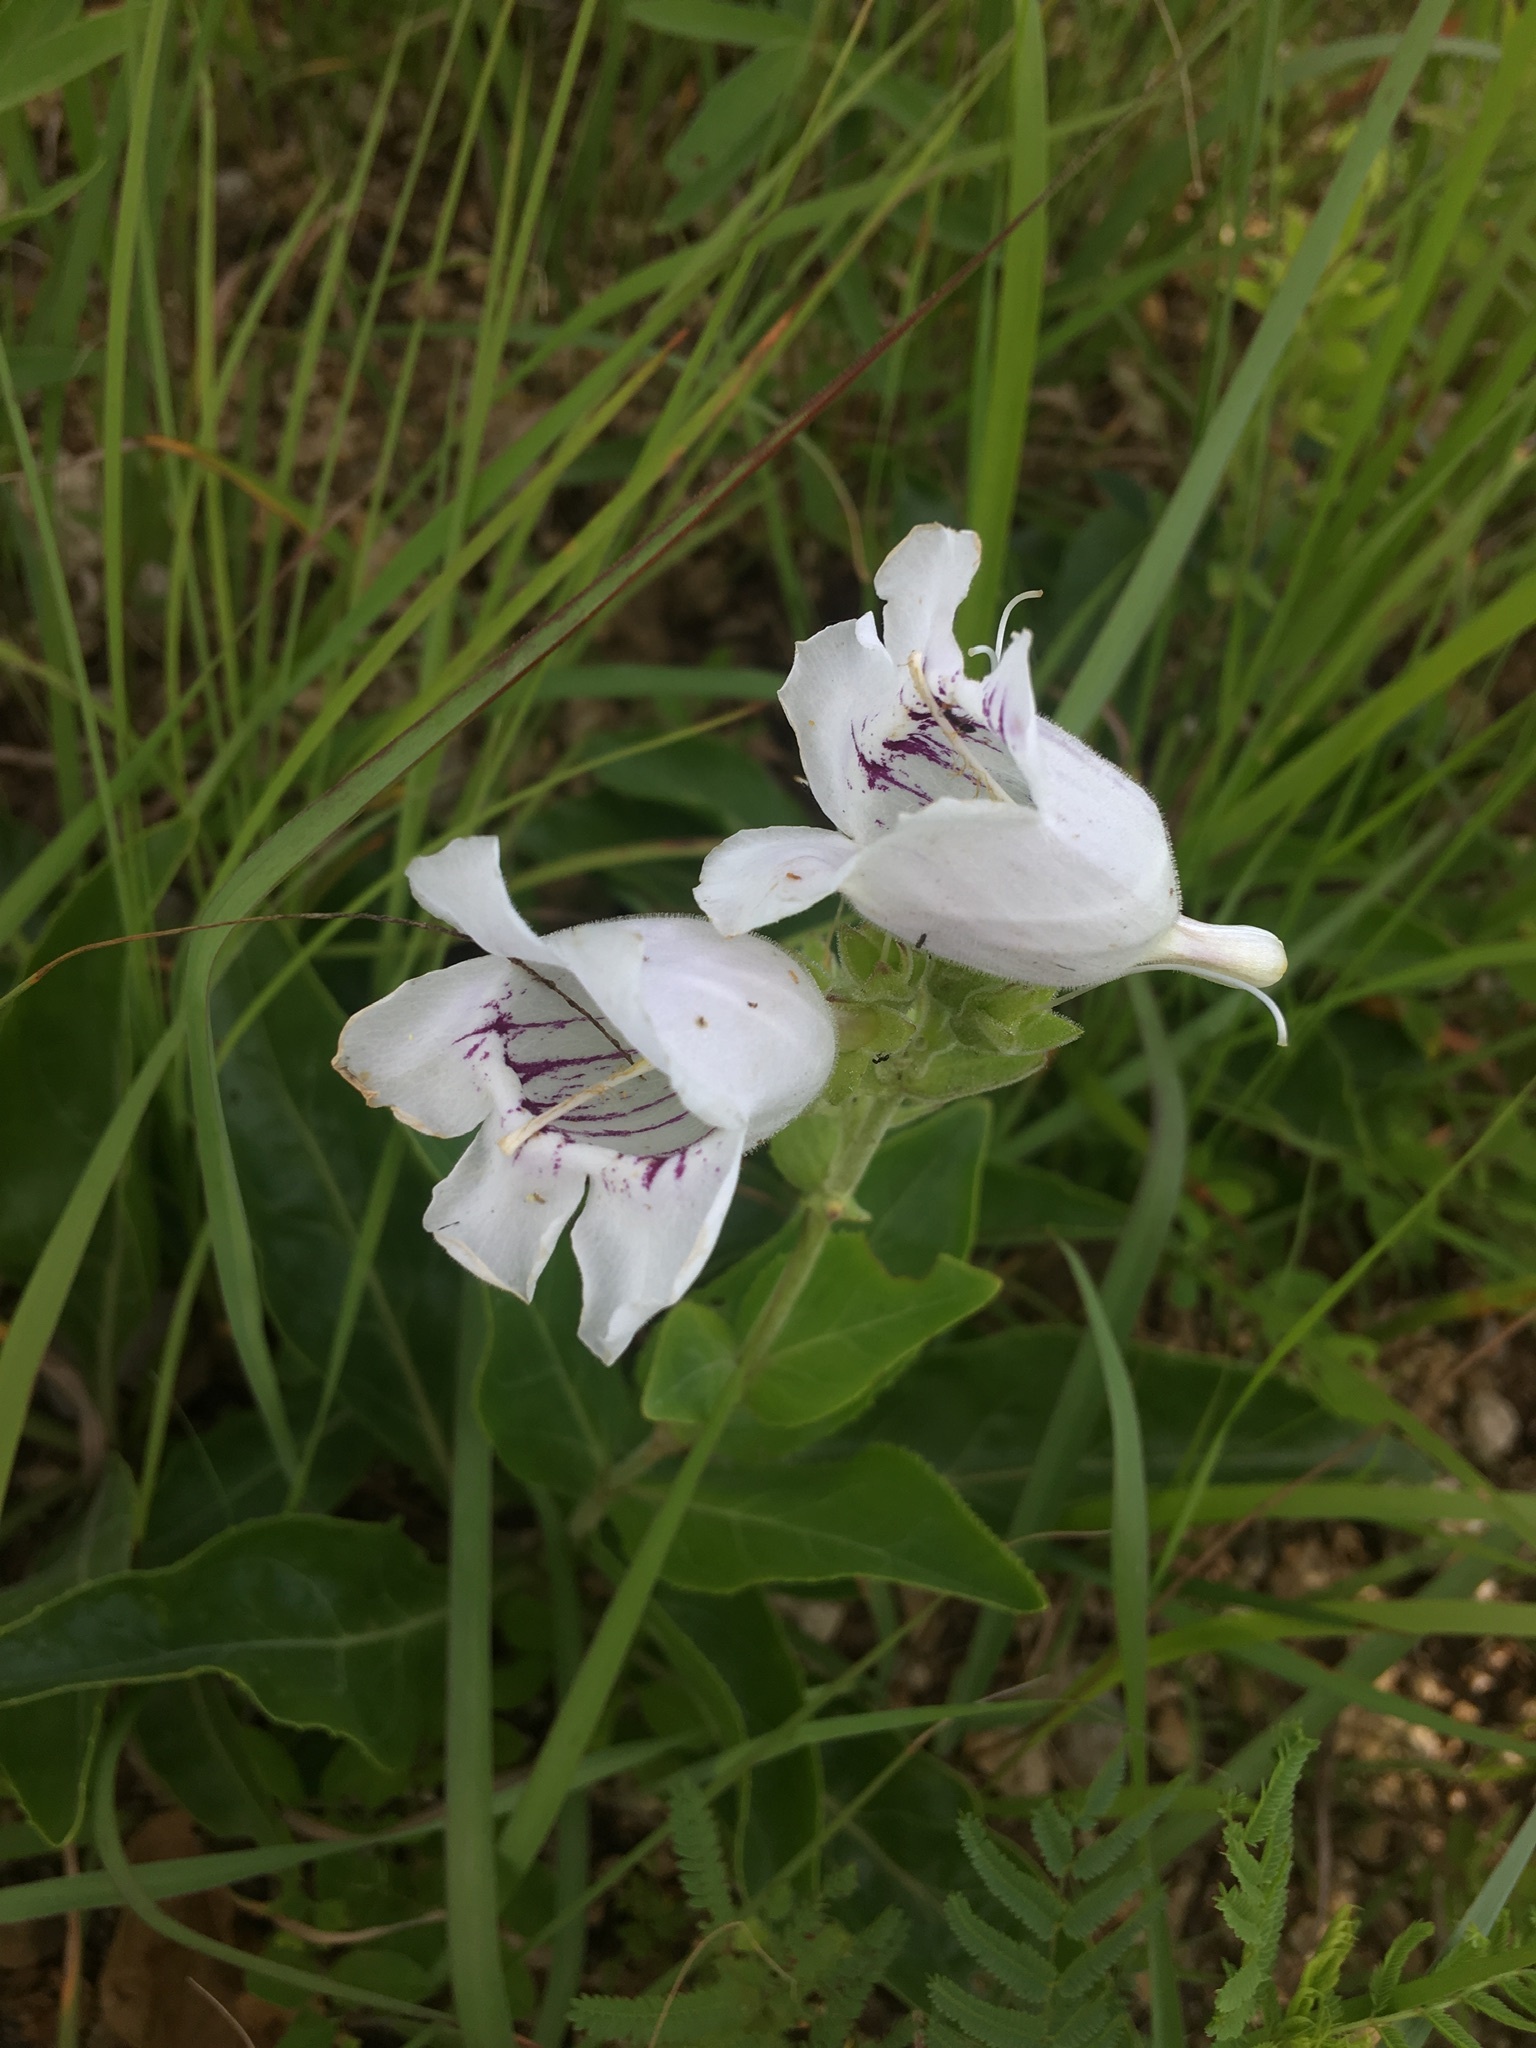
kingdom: Plantae
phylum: Tracheophyta
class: Magnoliopsida
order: Lamiales
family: Plantaginaceae
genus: Penstemon
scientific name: Penstemon cobaea
